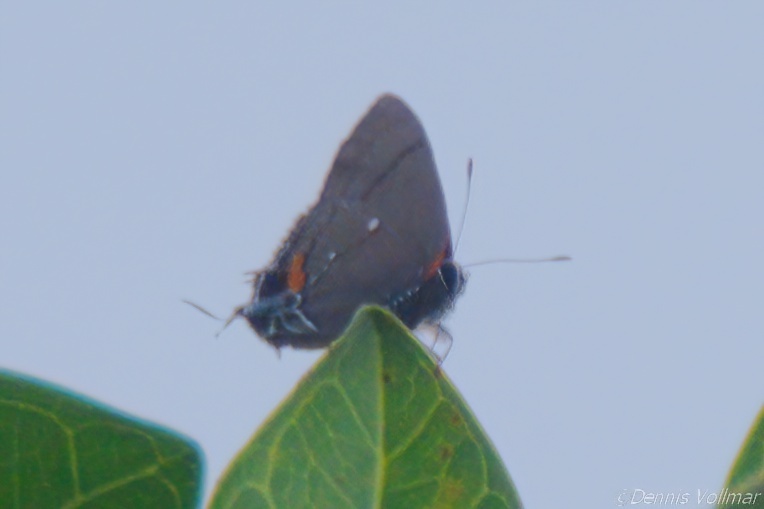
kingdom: Animalia
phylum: Arthropoda
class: Insecta
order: Lepidoptera
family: Lycaenidae
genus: Thecla
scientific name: Thecla angelia
